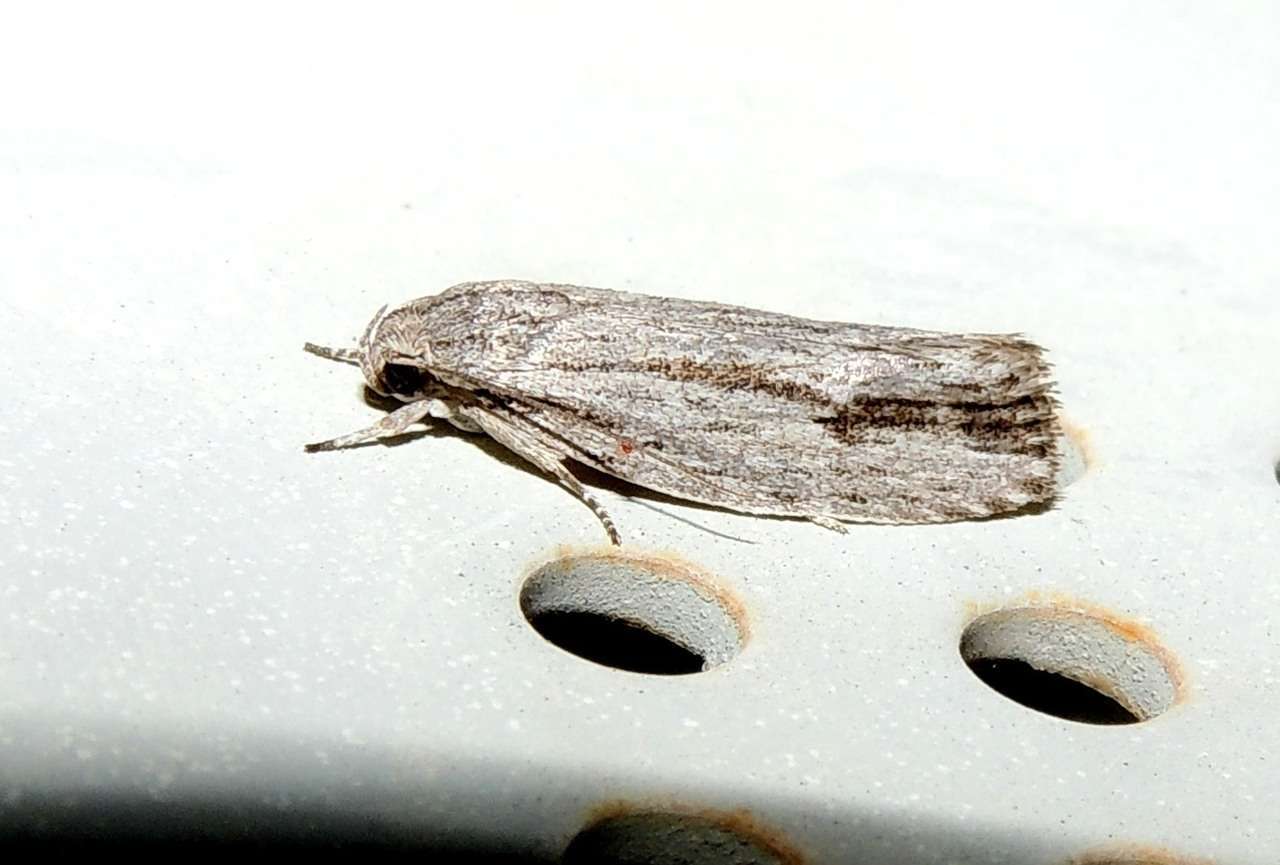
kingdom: Animalia
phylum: Arthropoda
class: Insecta
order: Lepidoptera
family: Depressariidae
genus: Agriophara
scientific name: Agriophara gravis
